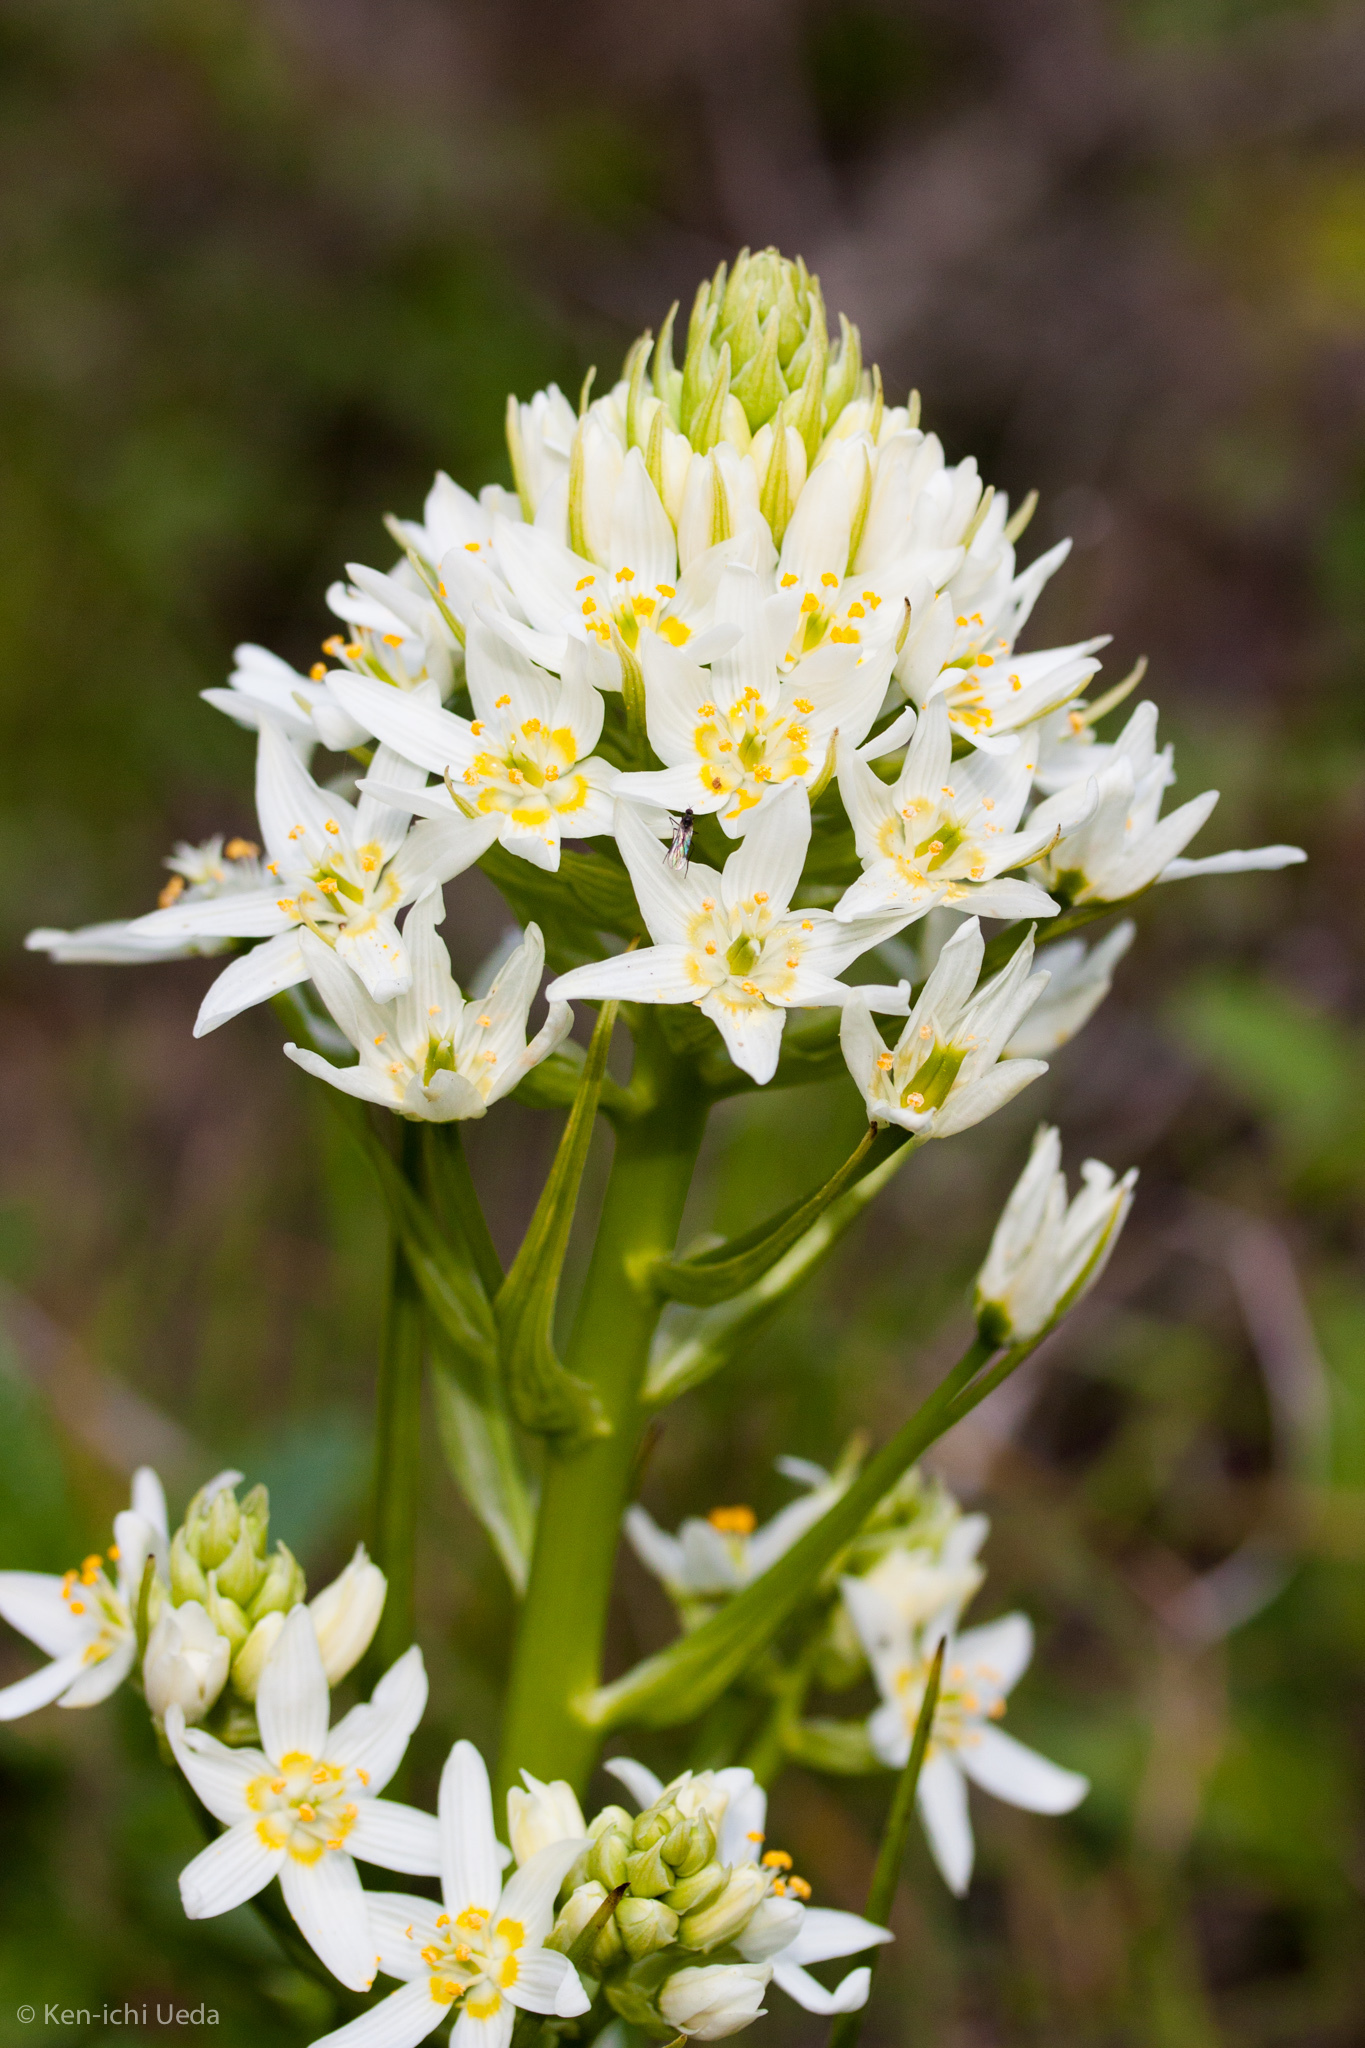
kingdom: Plantae
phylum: Tracheophyta
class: Liliopsida
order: Liliales
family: Melanthiaceae
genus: Toxicoscordion
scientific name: Toxicoscordion fremontii
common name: Fremont's death camas
